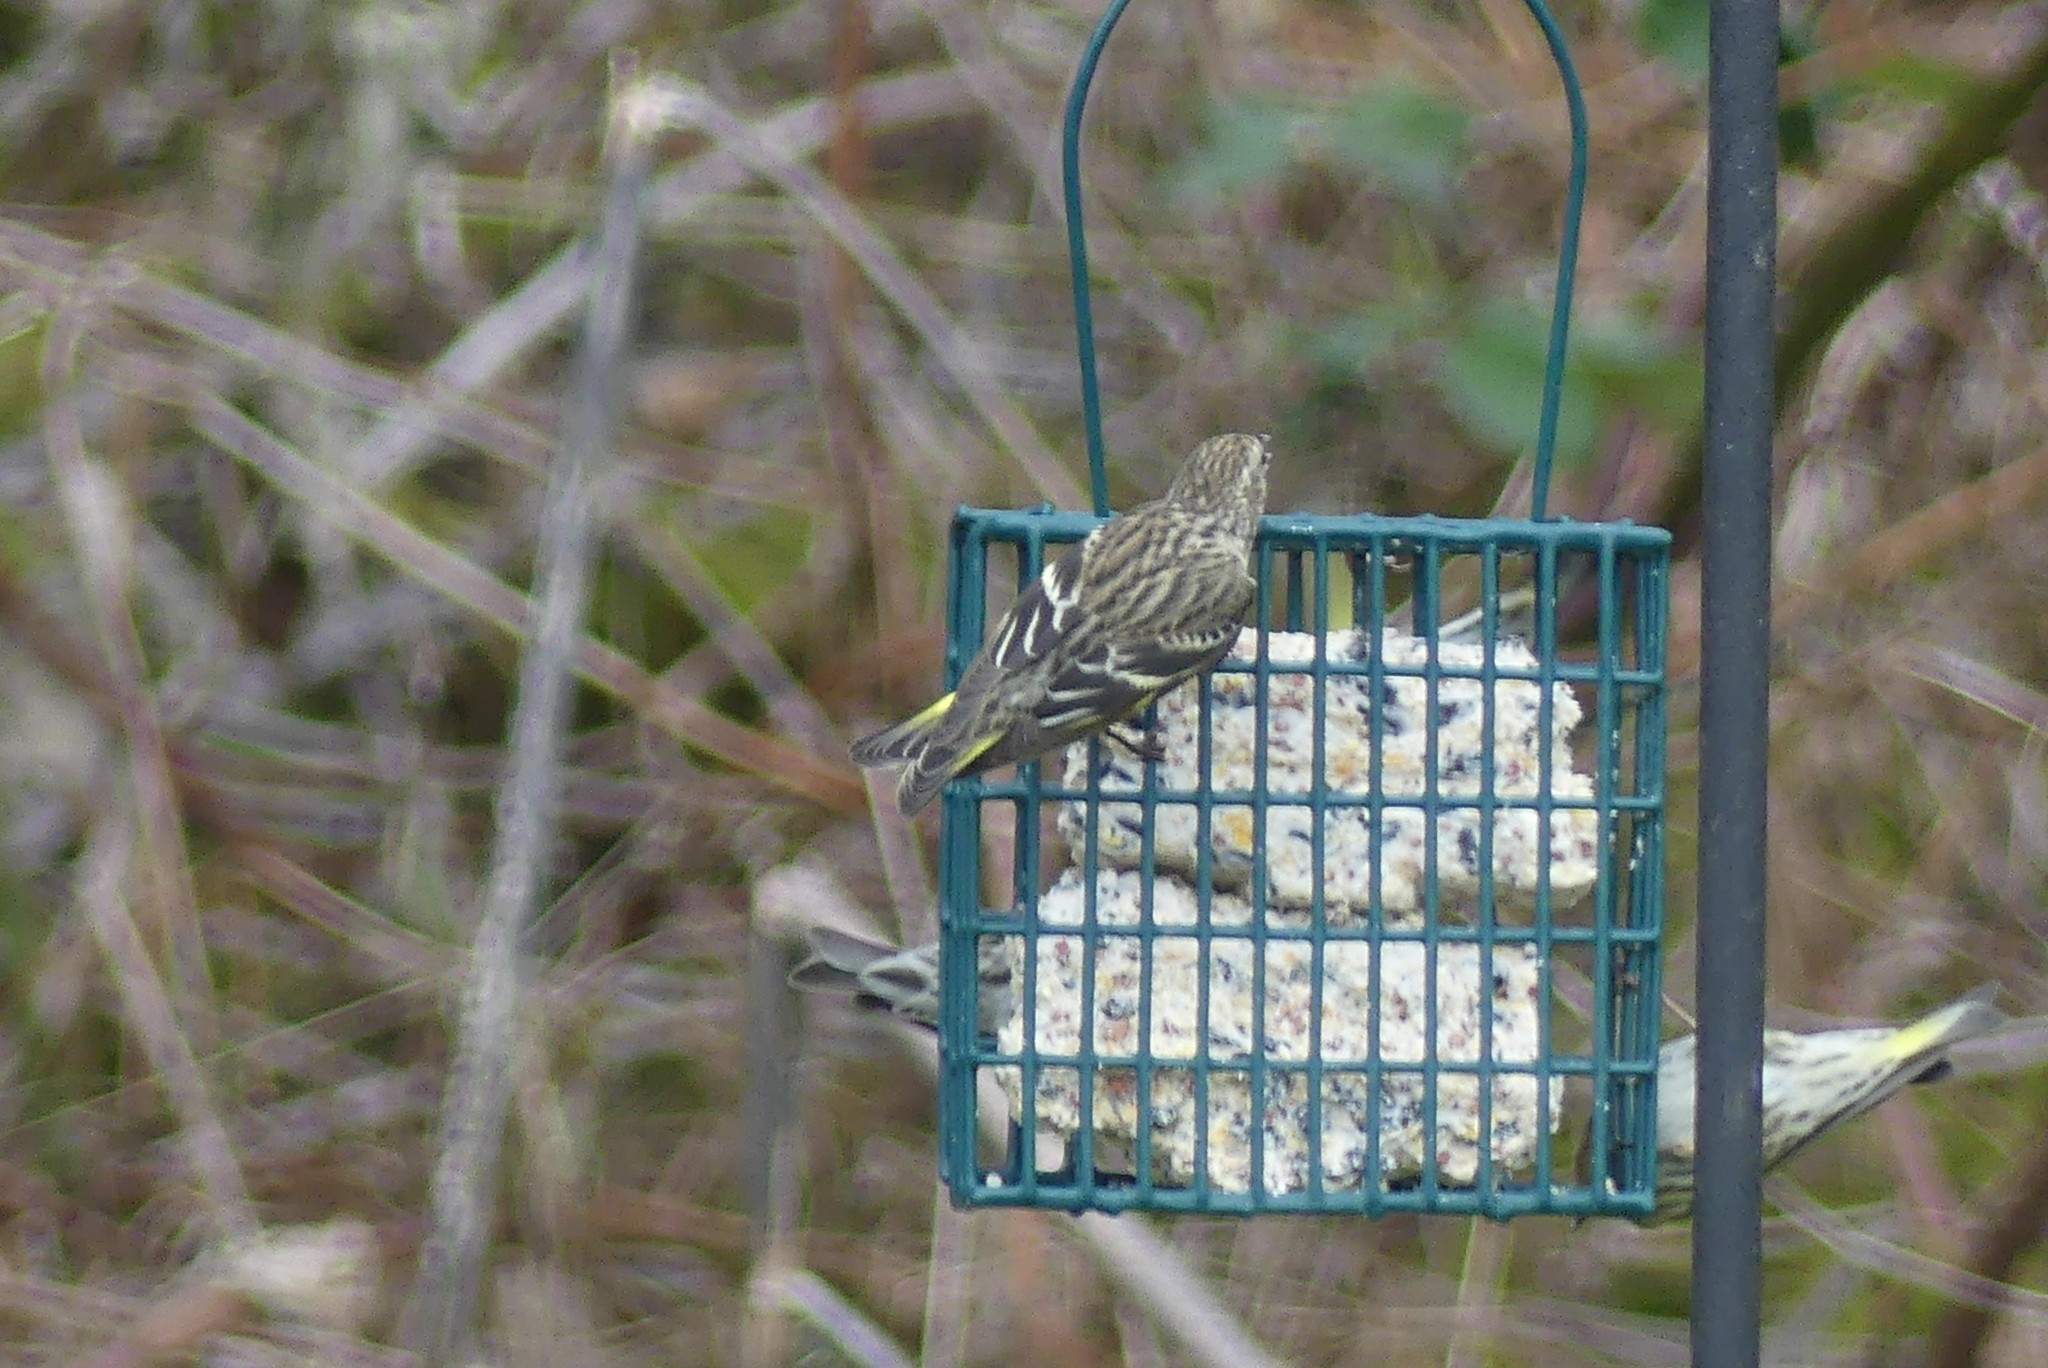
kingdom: Animalia
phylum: Chordata
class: Aves
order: Passeriformes
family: Fringillidae
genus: Spinus
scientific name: Spinus pinus
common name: Pine siskin
